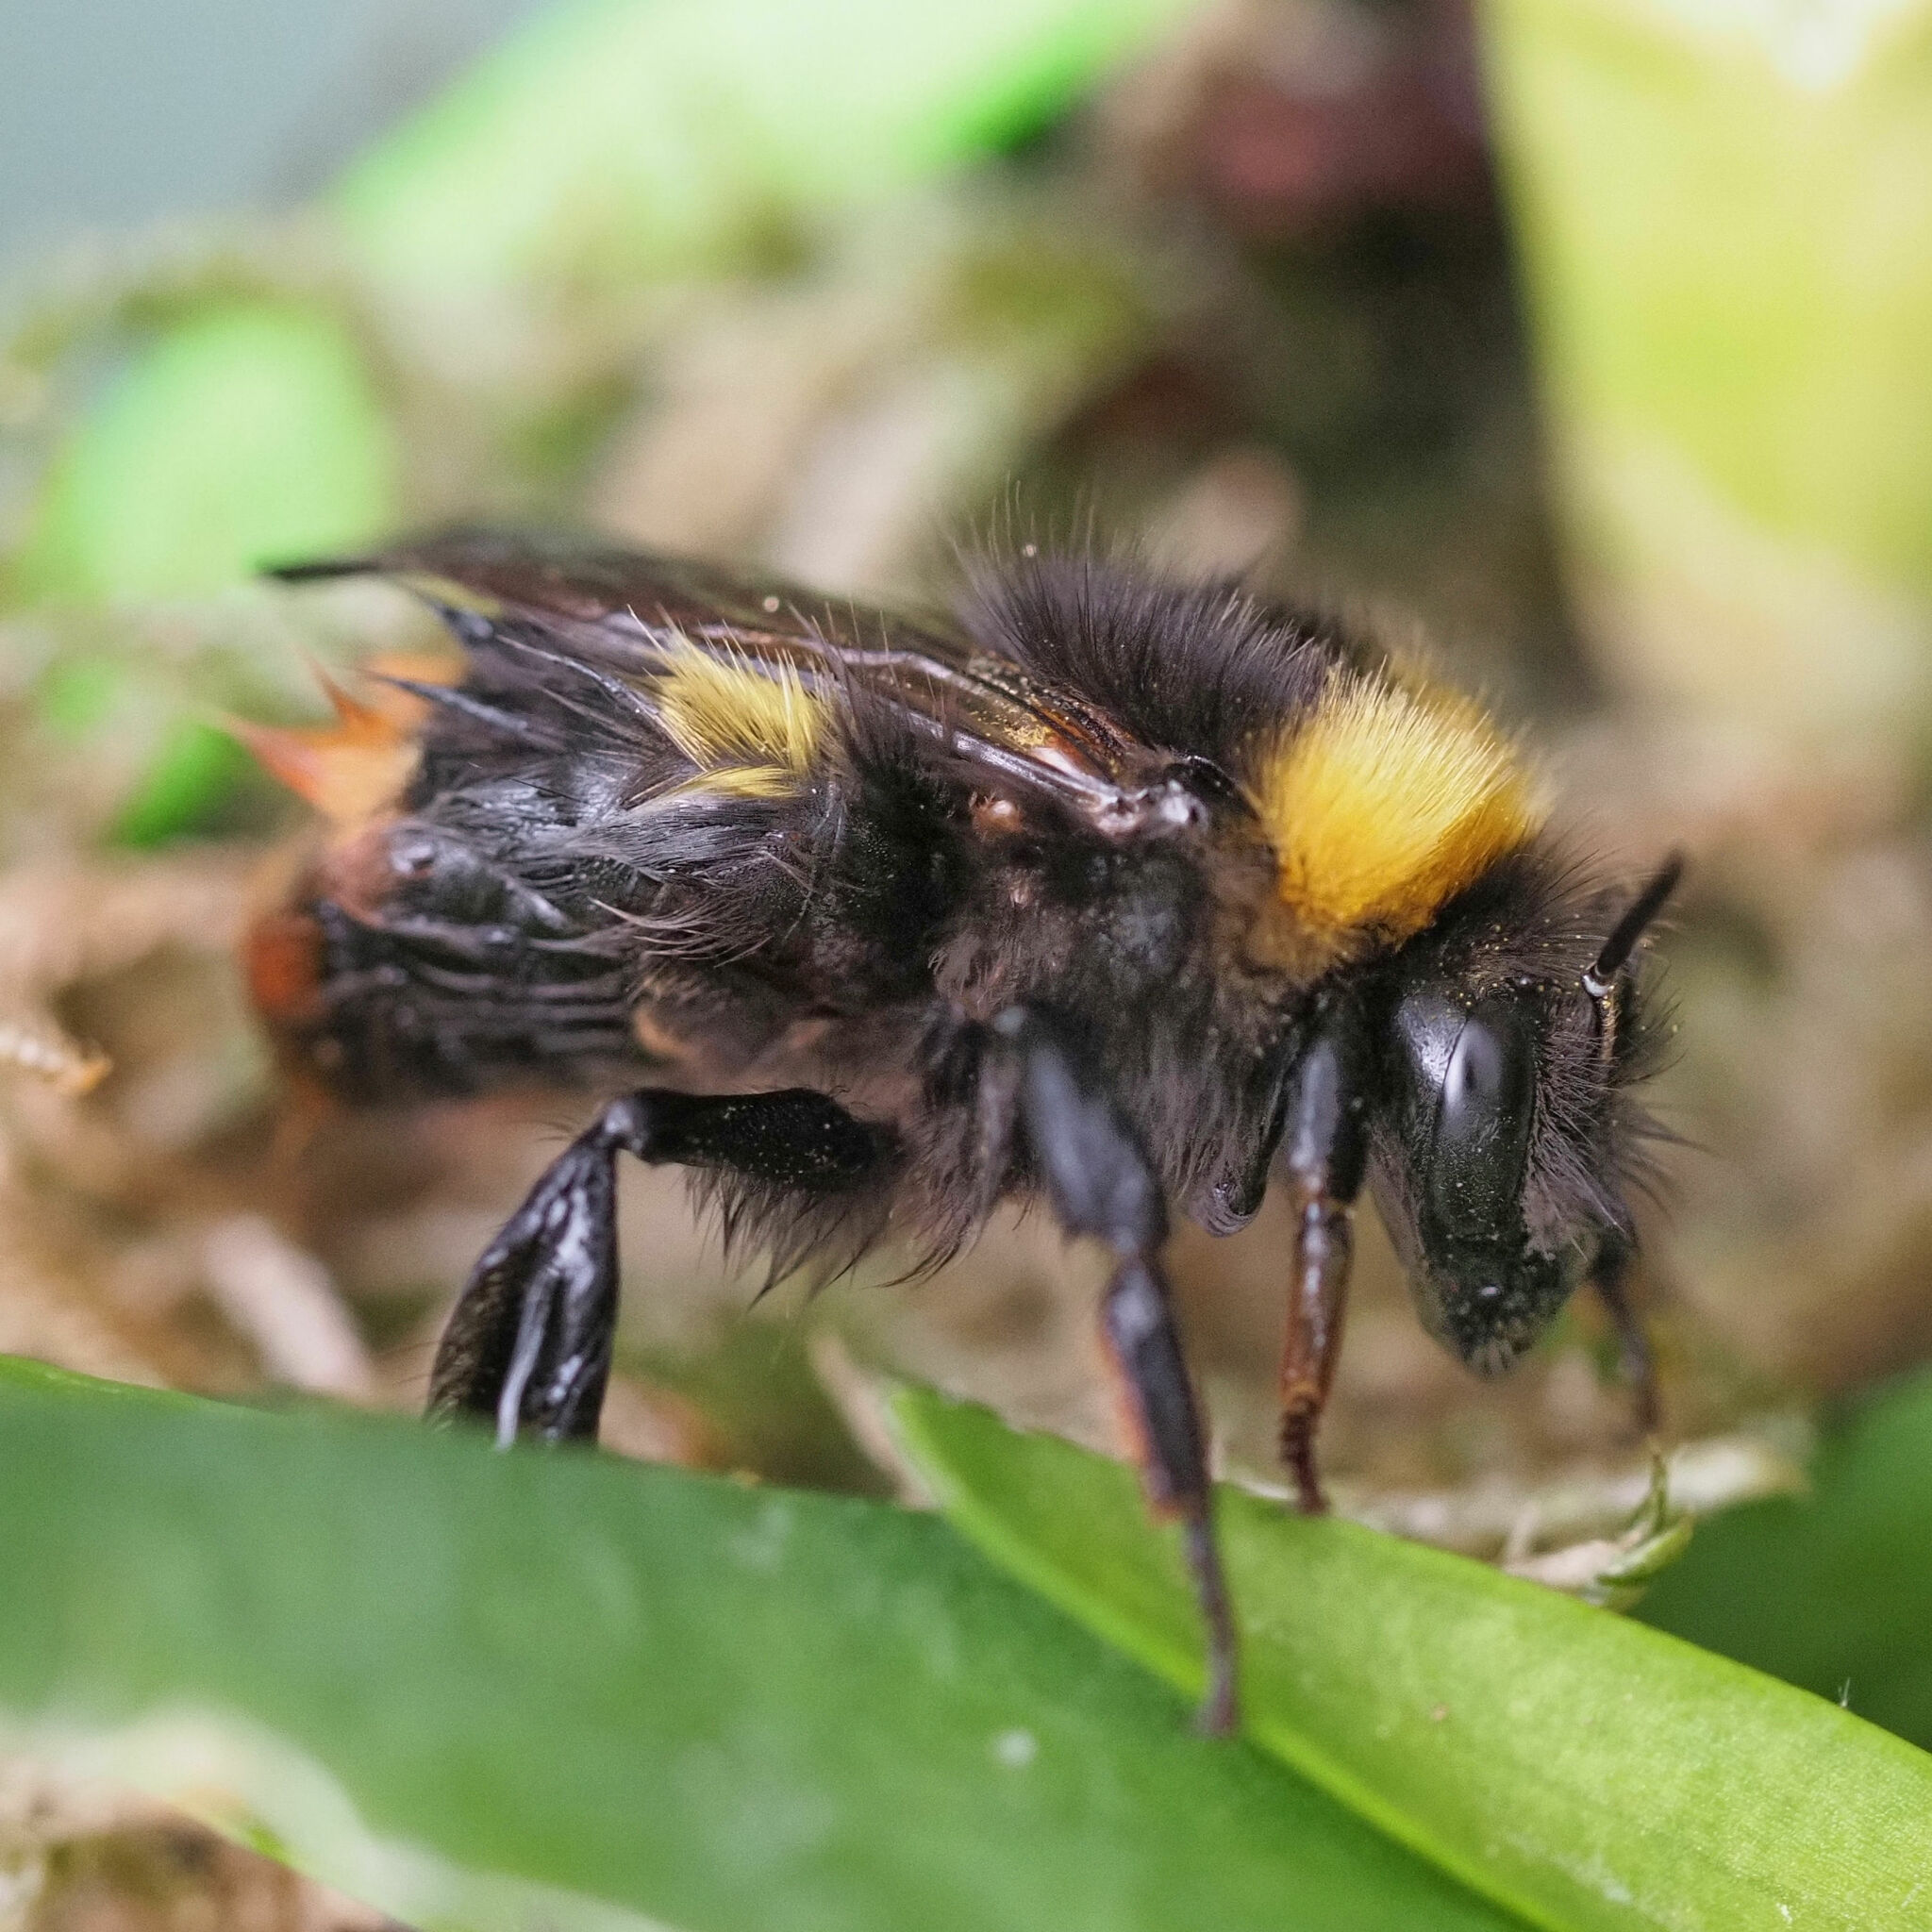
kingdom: Animalia
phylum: Arthropoda
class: Insecta
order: Hymenoptera
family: Apidae
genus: Bombus
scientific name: Bombus pratorum
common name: Early humble-bee
